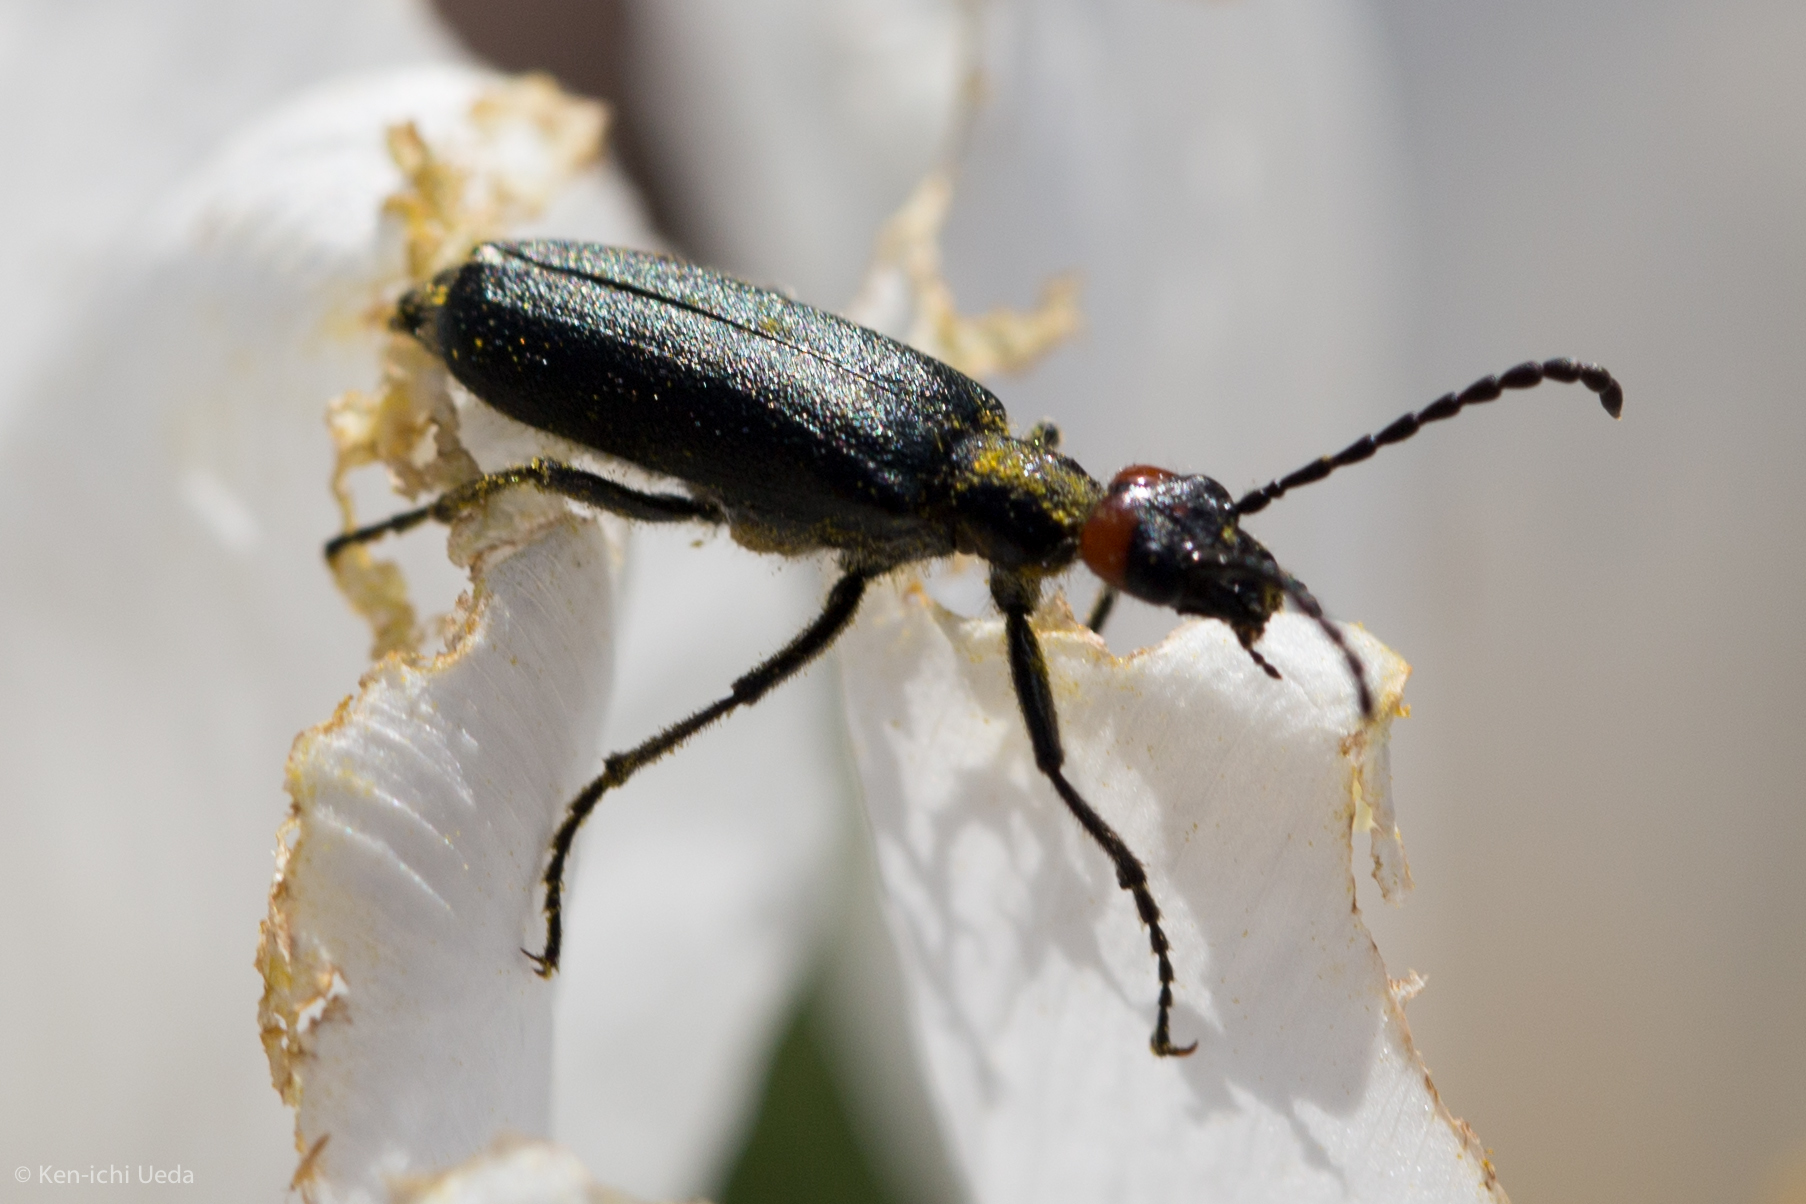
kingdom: Animalia
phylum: Arthropoda
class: Insecta
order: Coleoptera
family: Meloidae
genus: Lytta
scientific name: Lytta auriculata
